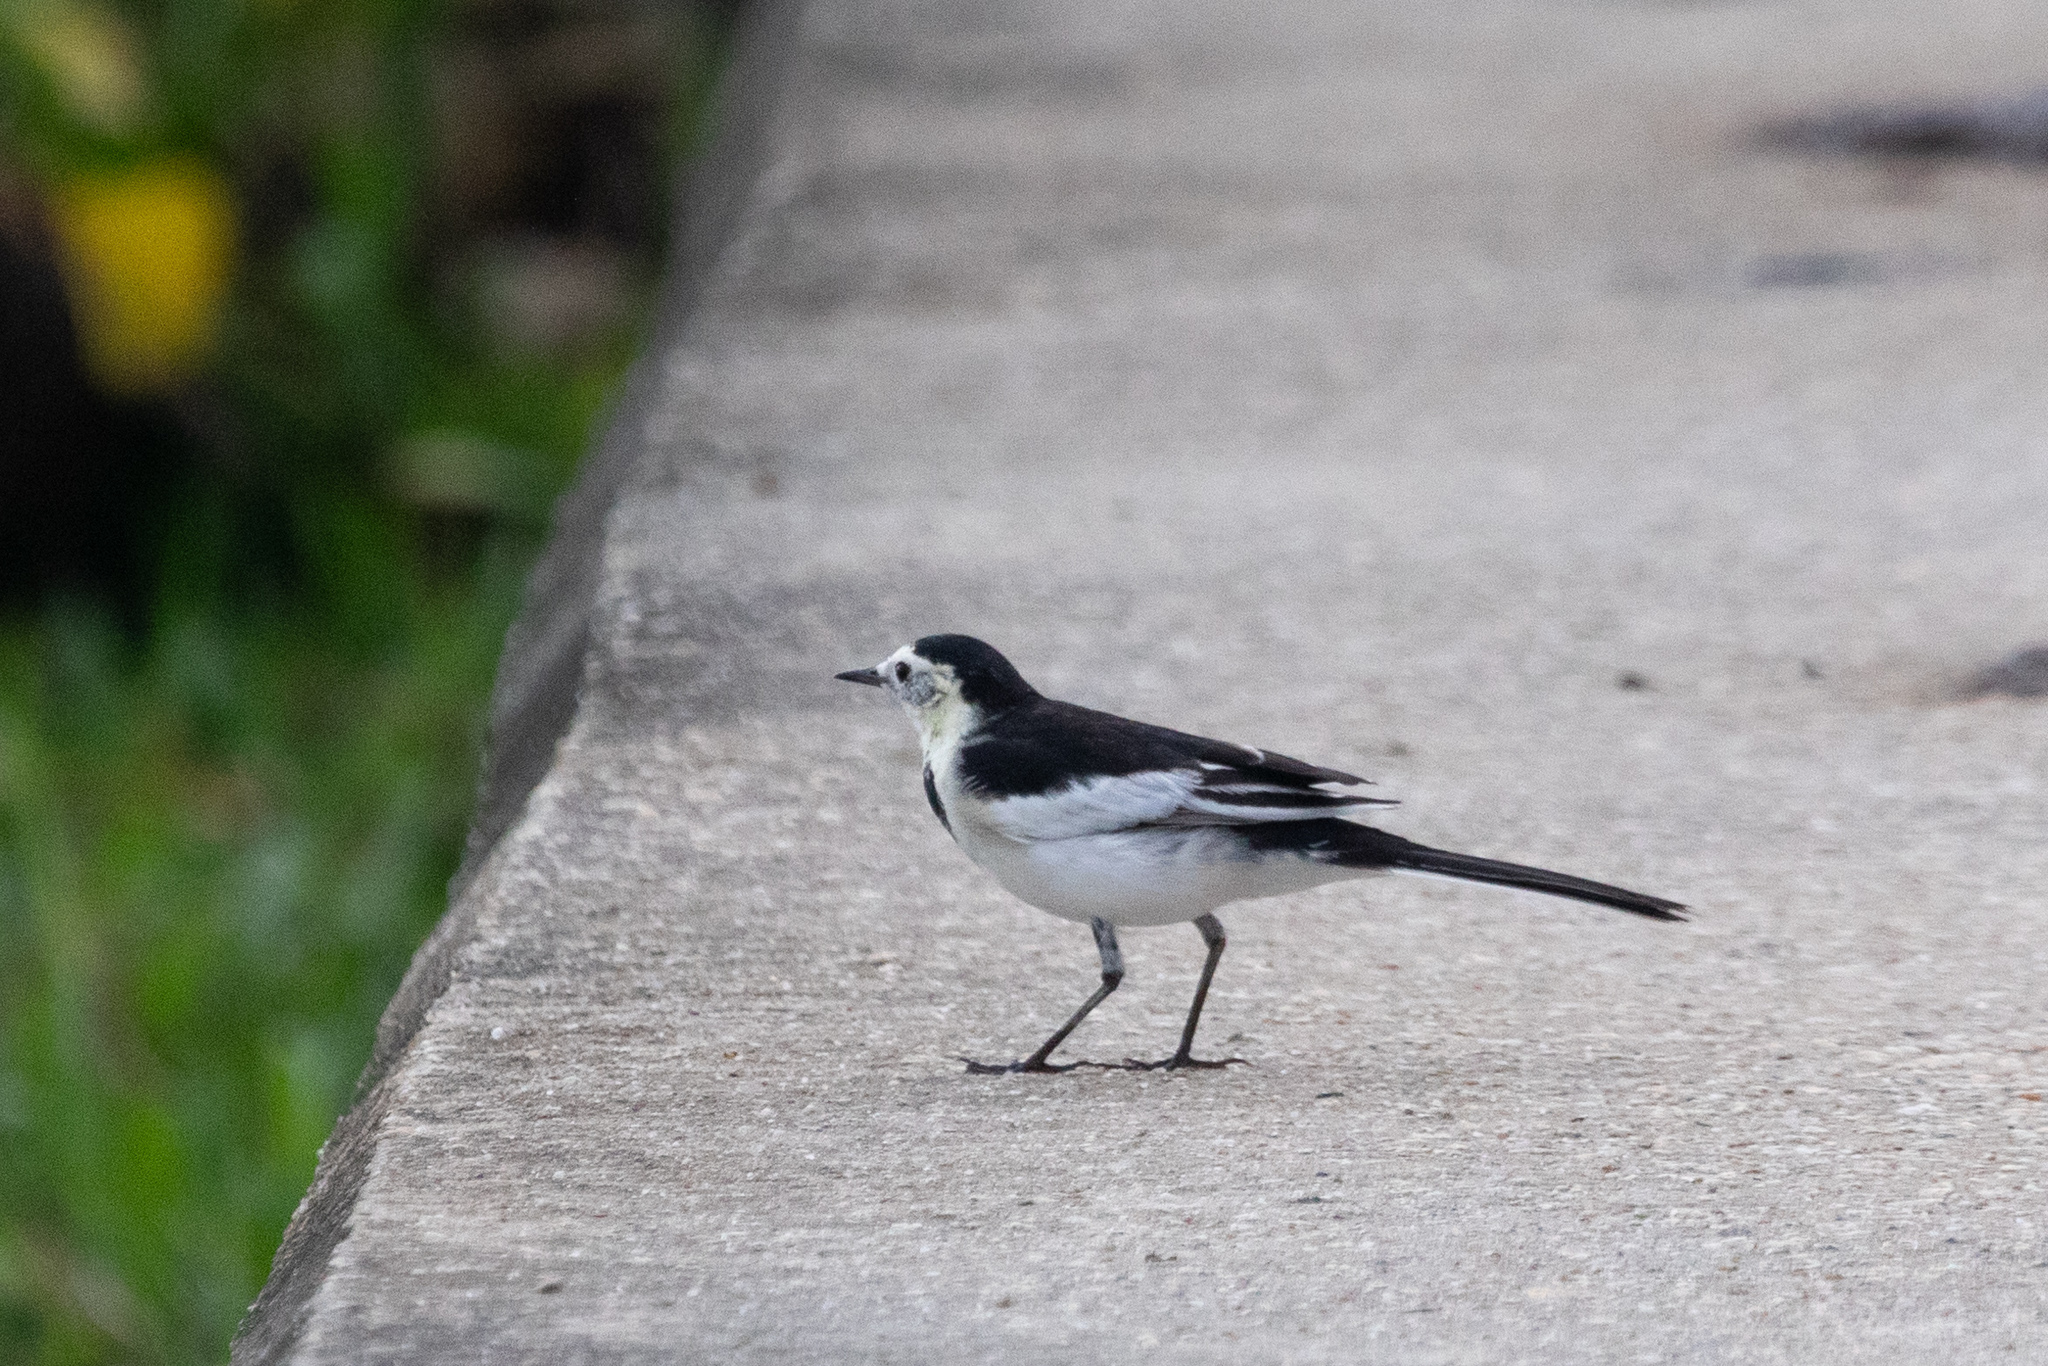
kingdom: Animalia
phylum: Chordata
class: Aves
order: Passeriformes
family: Motacillidae
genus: Motacilla
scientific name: Motacilla alba
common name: White wagtail
